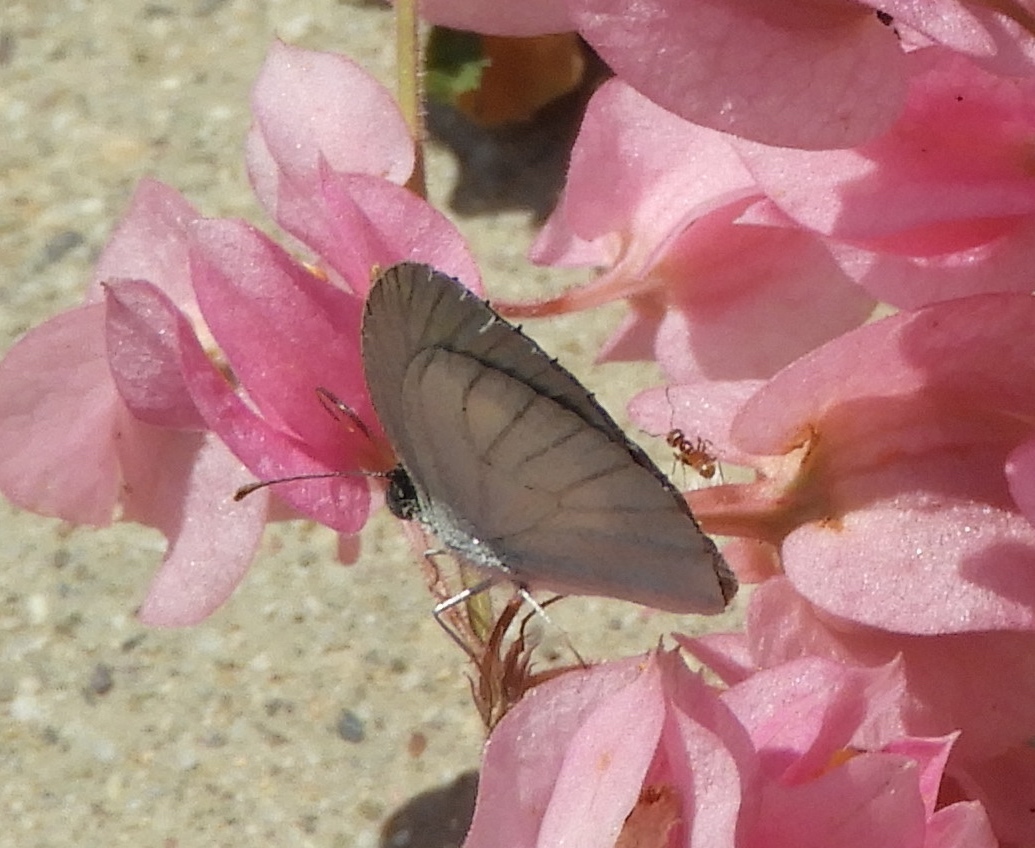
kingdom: Animalia
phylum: Arthropoda
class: Insecta
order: Lepidoptera
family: Pieridae
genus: Eurema
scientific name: Eurema
